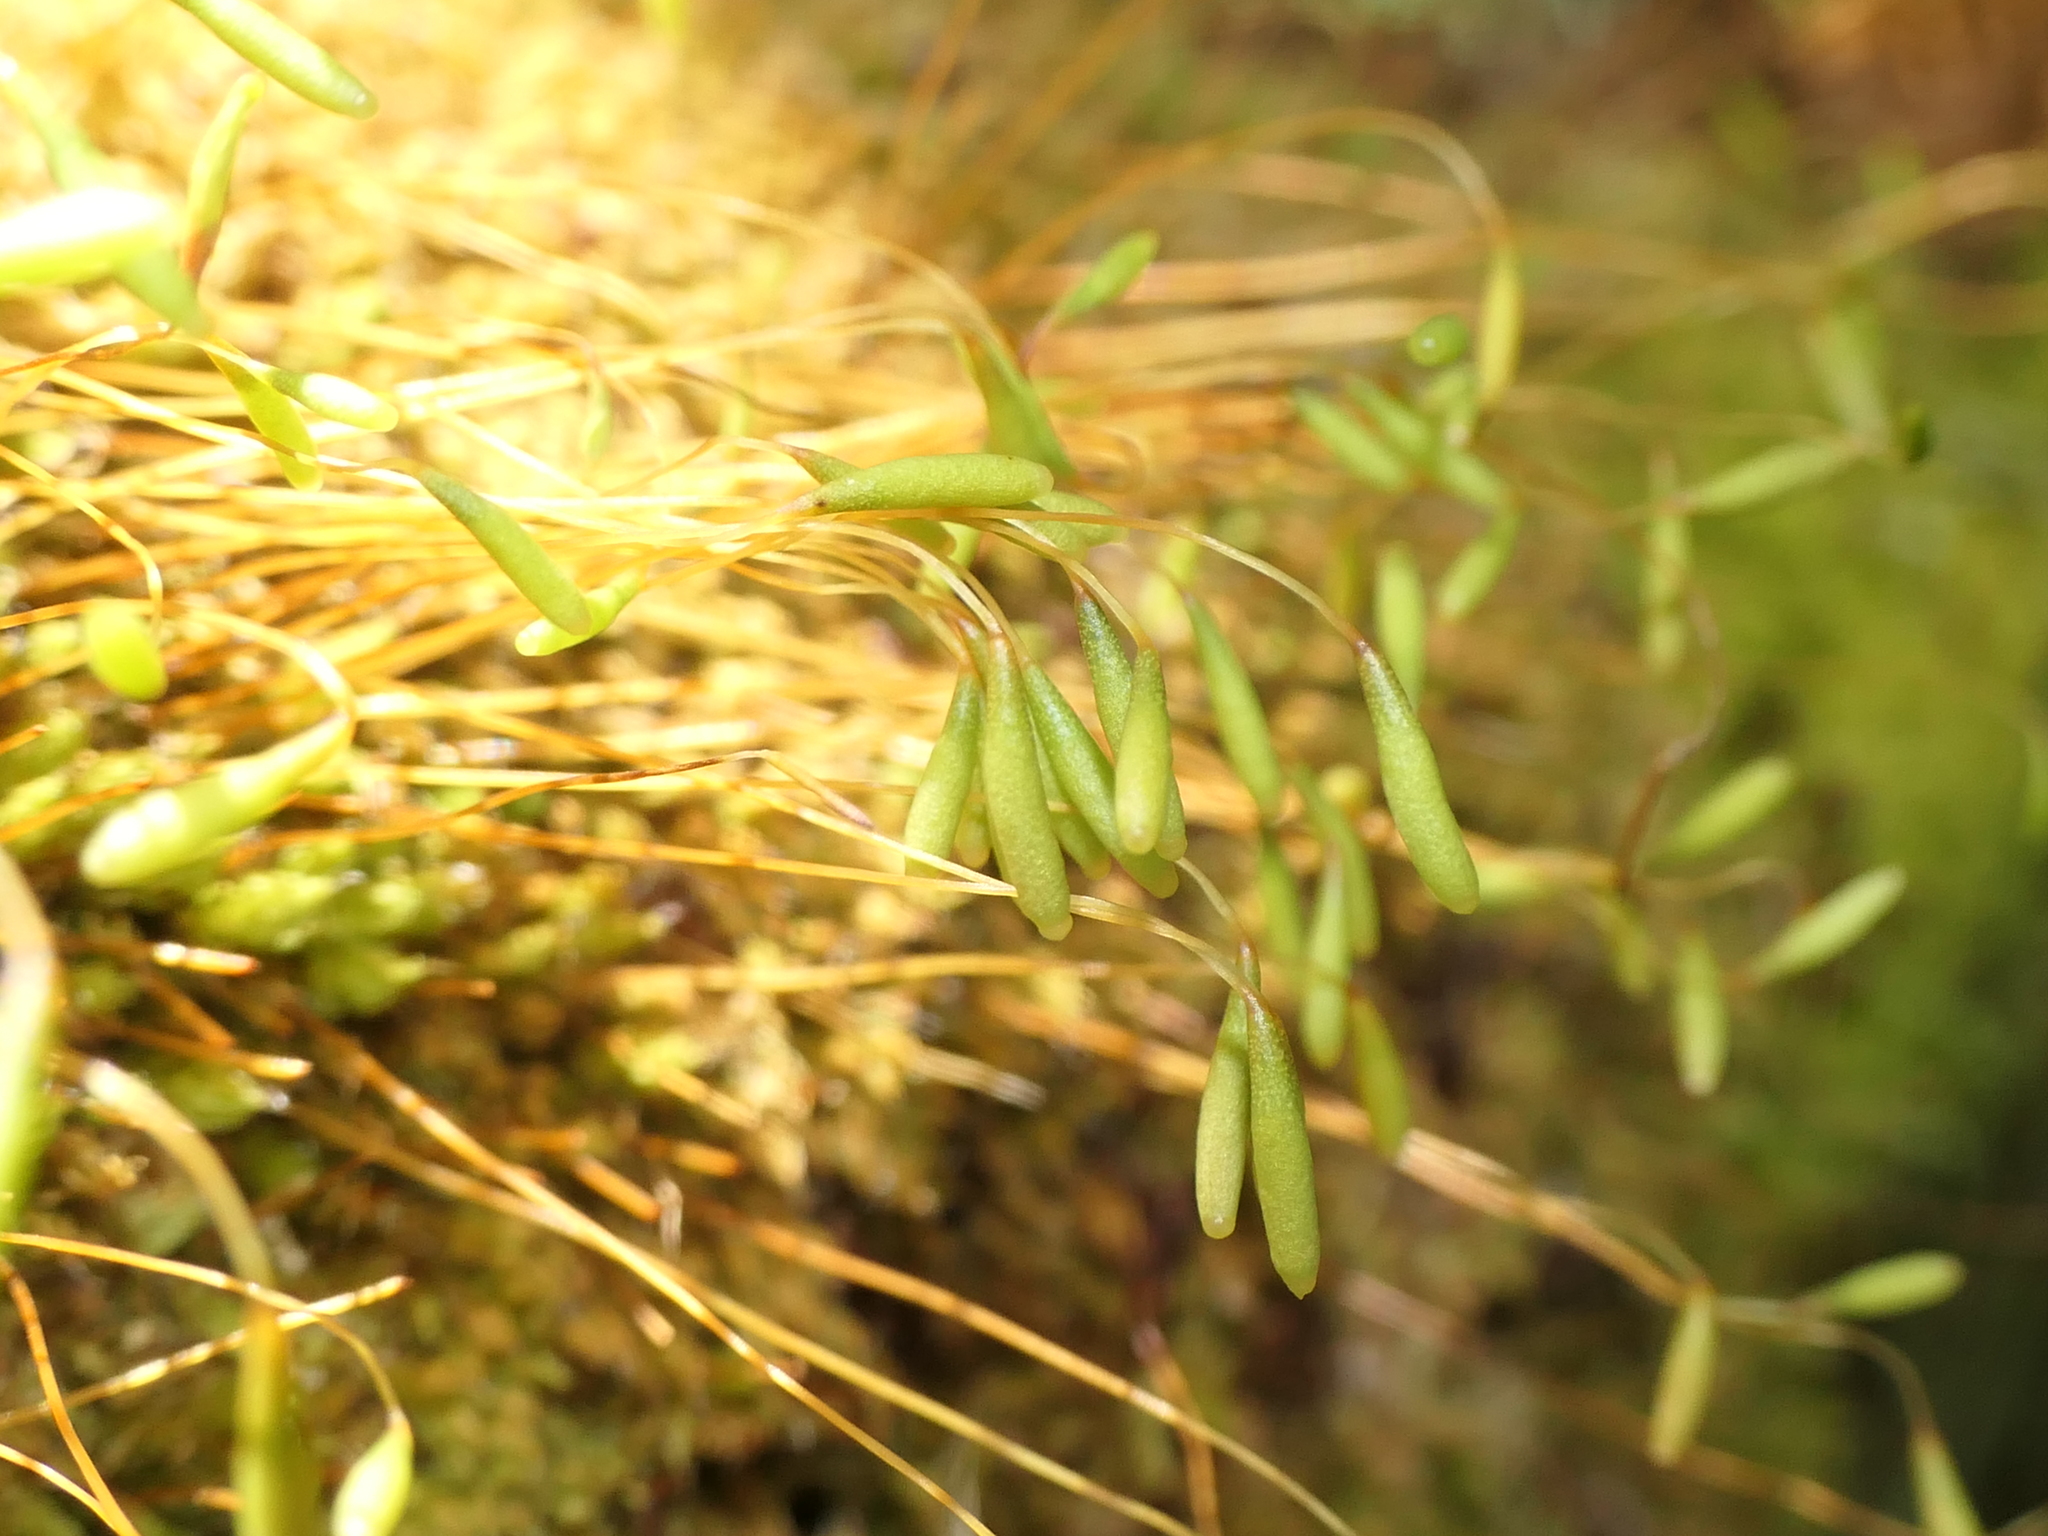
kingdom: Plantae
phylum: Bryophyta
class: Bryopsida
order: Bryales
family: Leptostomataceae
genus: Leptostomum
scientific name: Leptostomum inclinans
